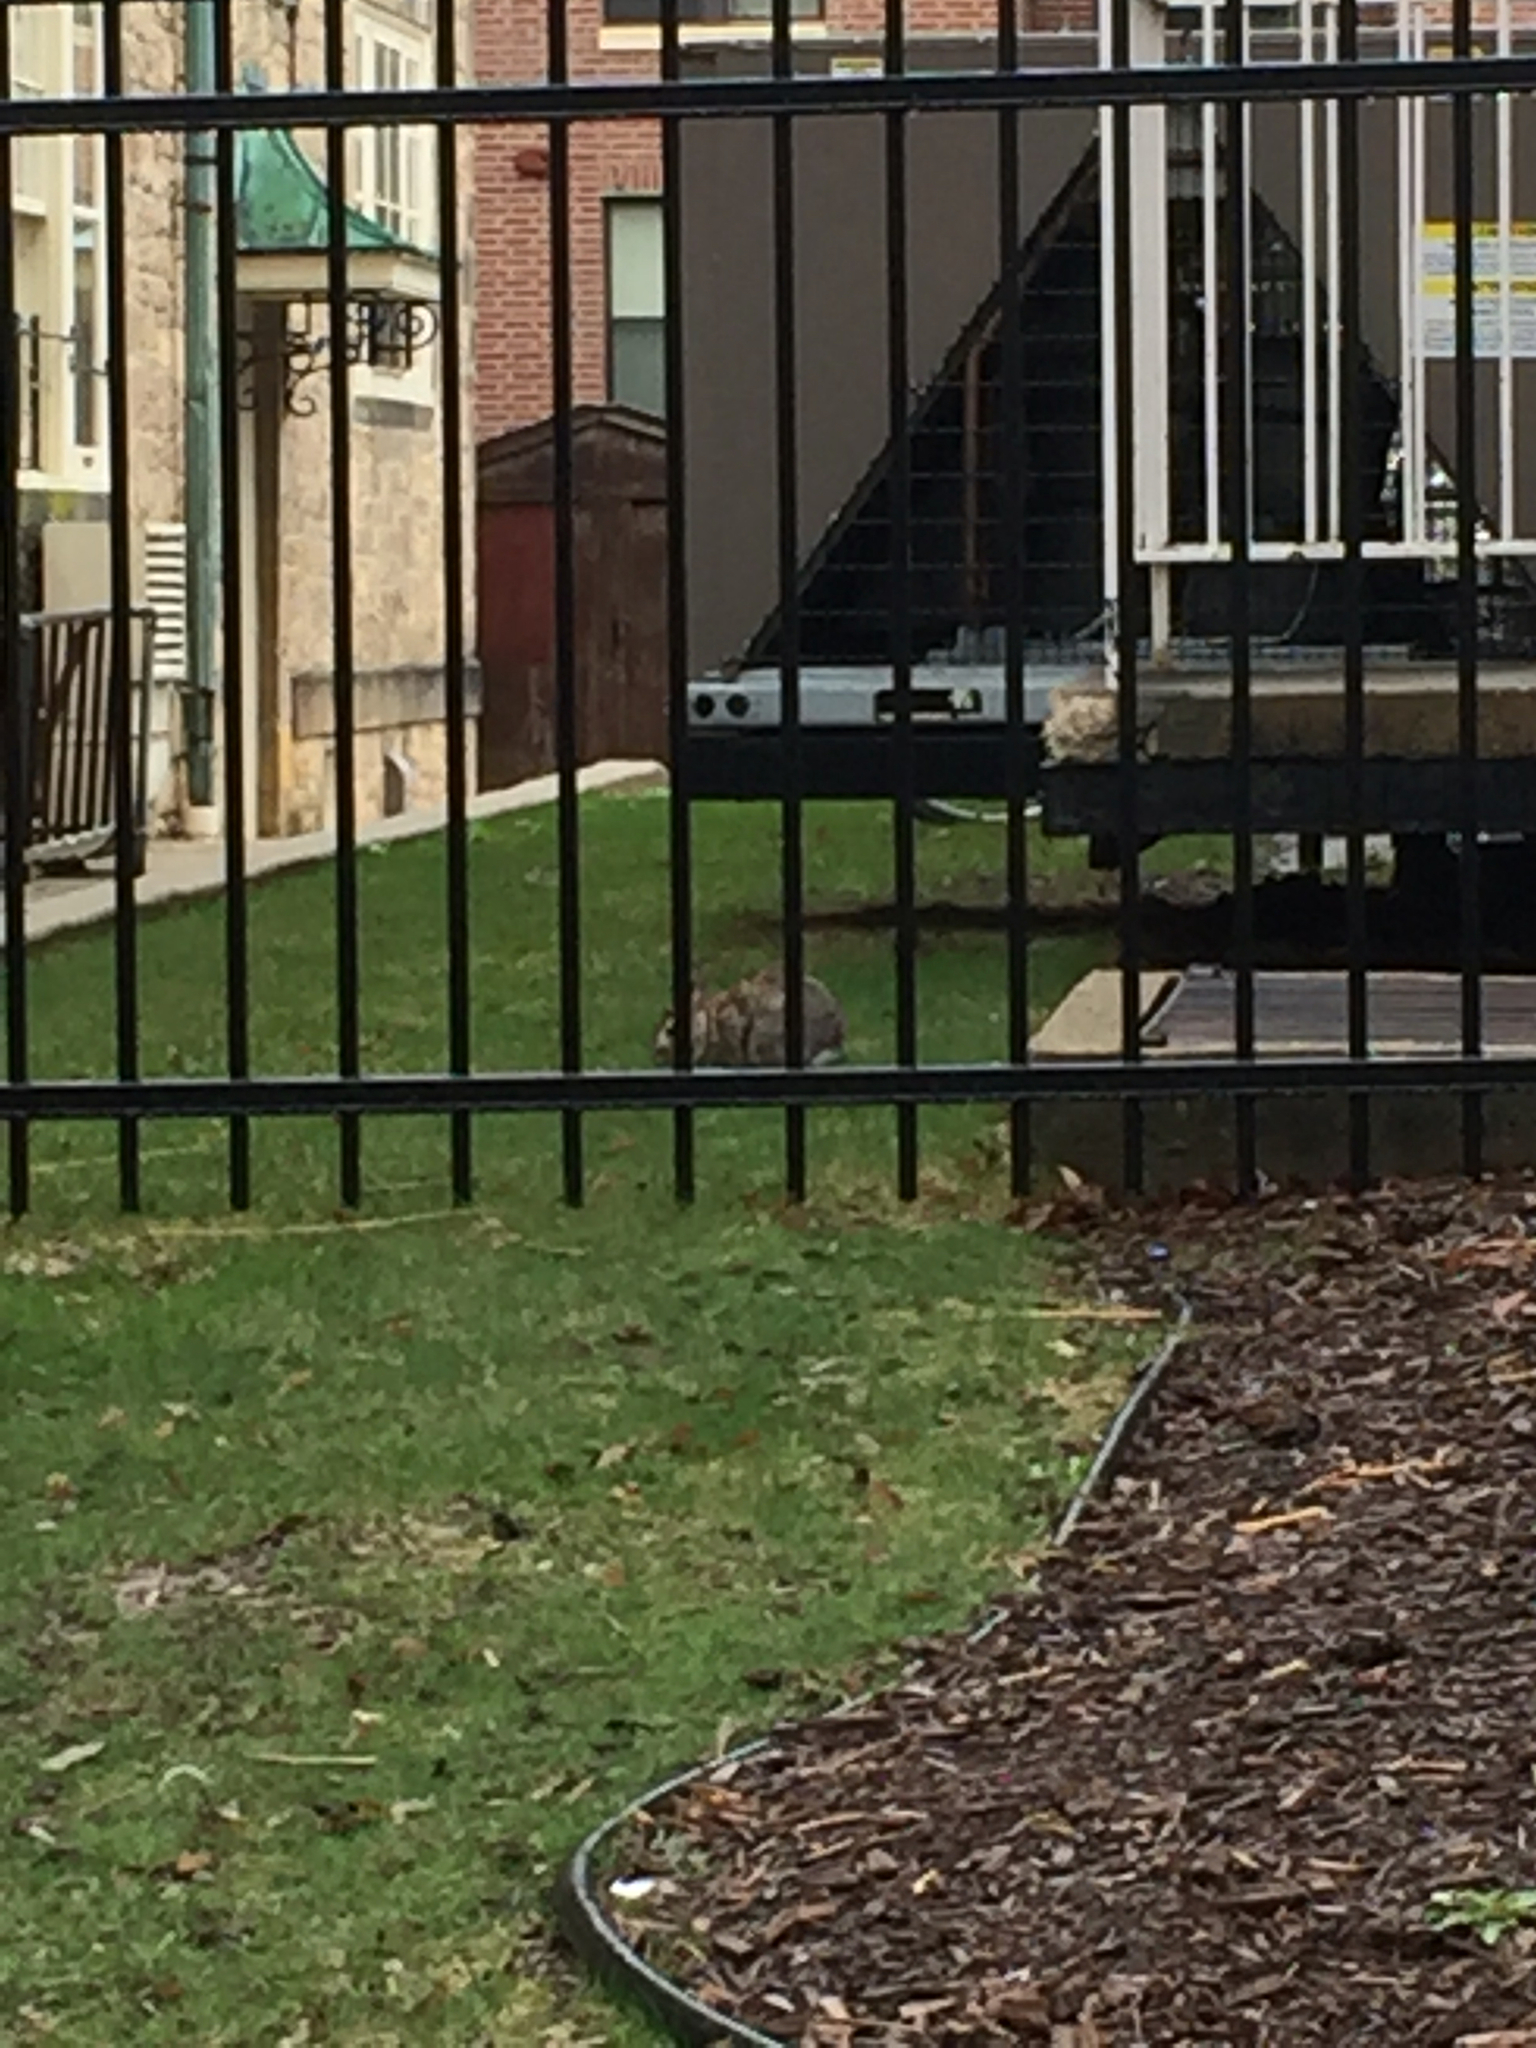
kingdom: Animalia
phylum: Chordata
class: Mammalia
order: Lagomorpha
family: Leporidae
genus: Sylvilagus
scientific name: Sylvilagus floridanus
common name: Eastern cottontail
